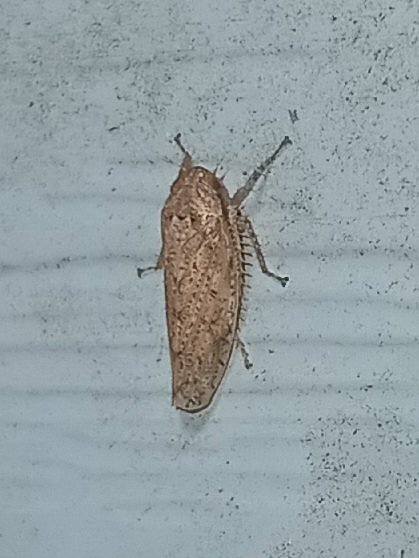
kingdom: Animalia
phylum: Arthropoda
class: Insecta
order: Hemiptera
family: Cicadellidae
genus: Curtara
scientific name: Curtara insularis
